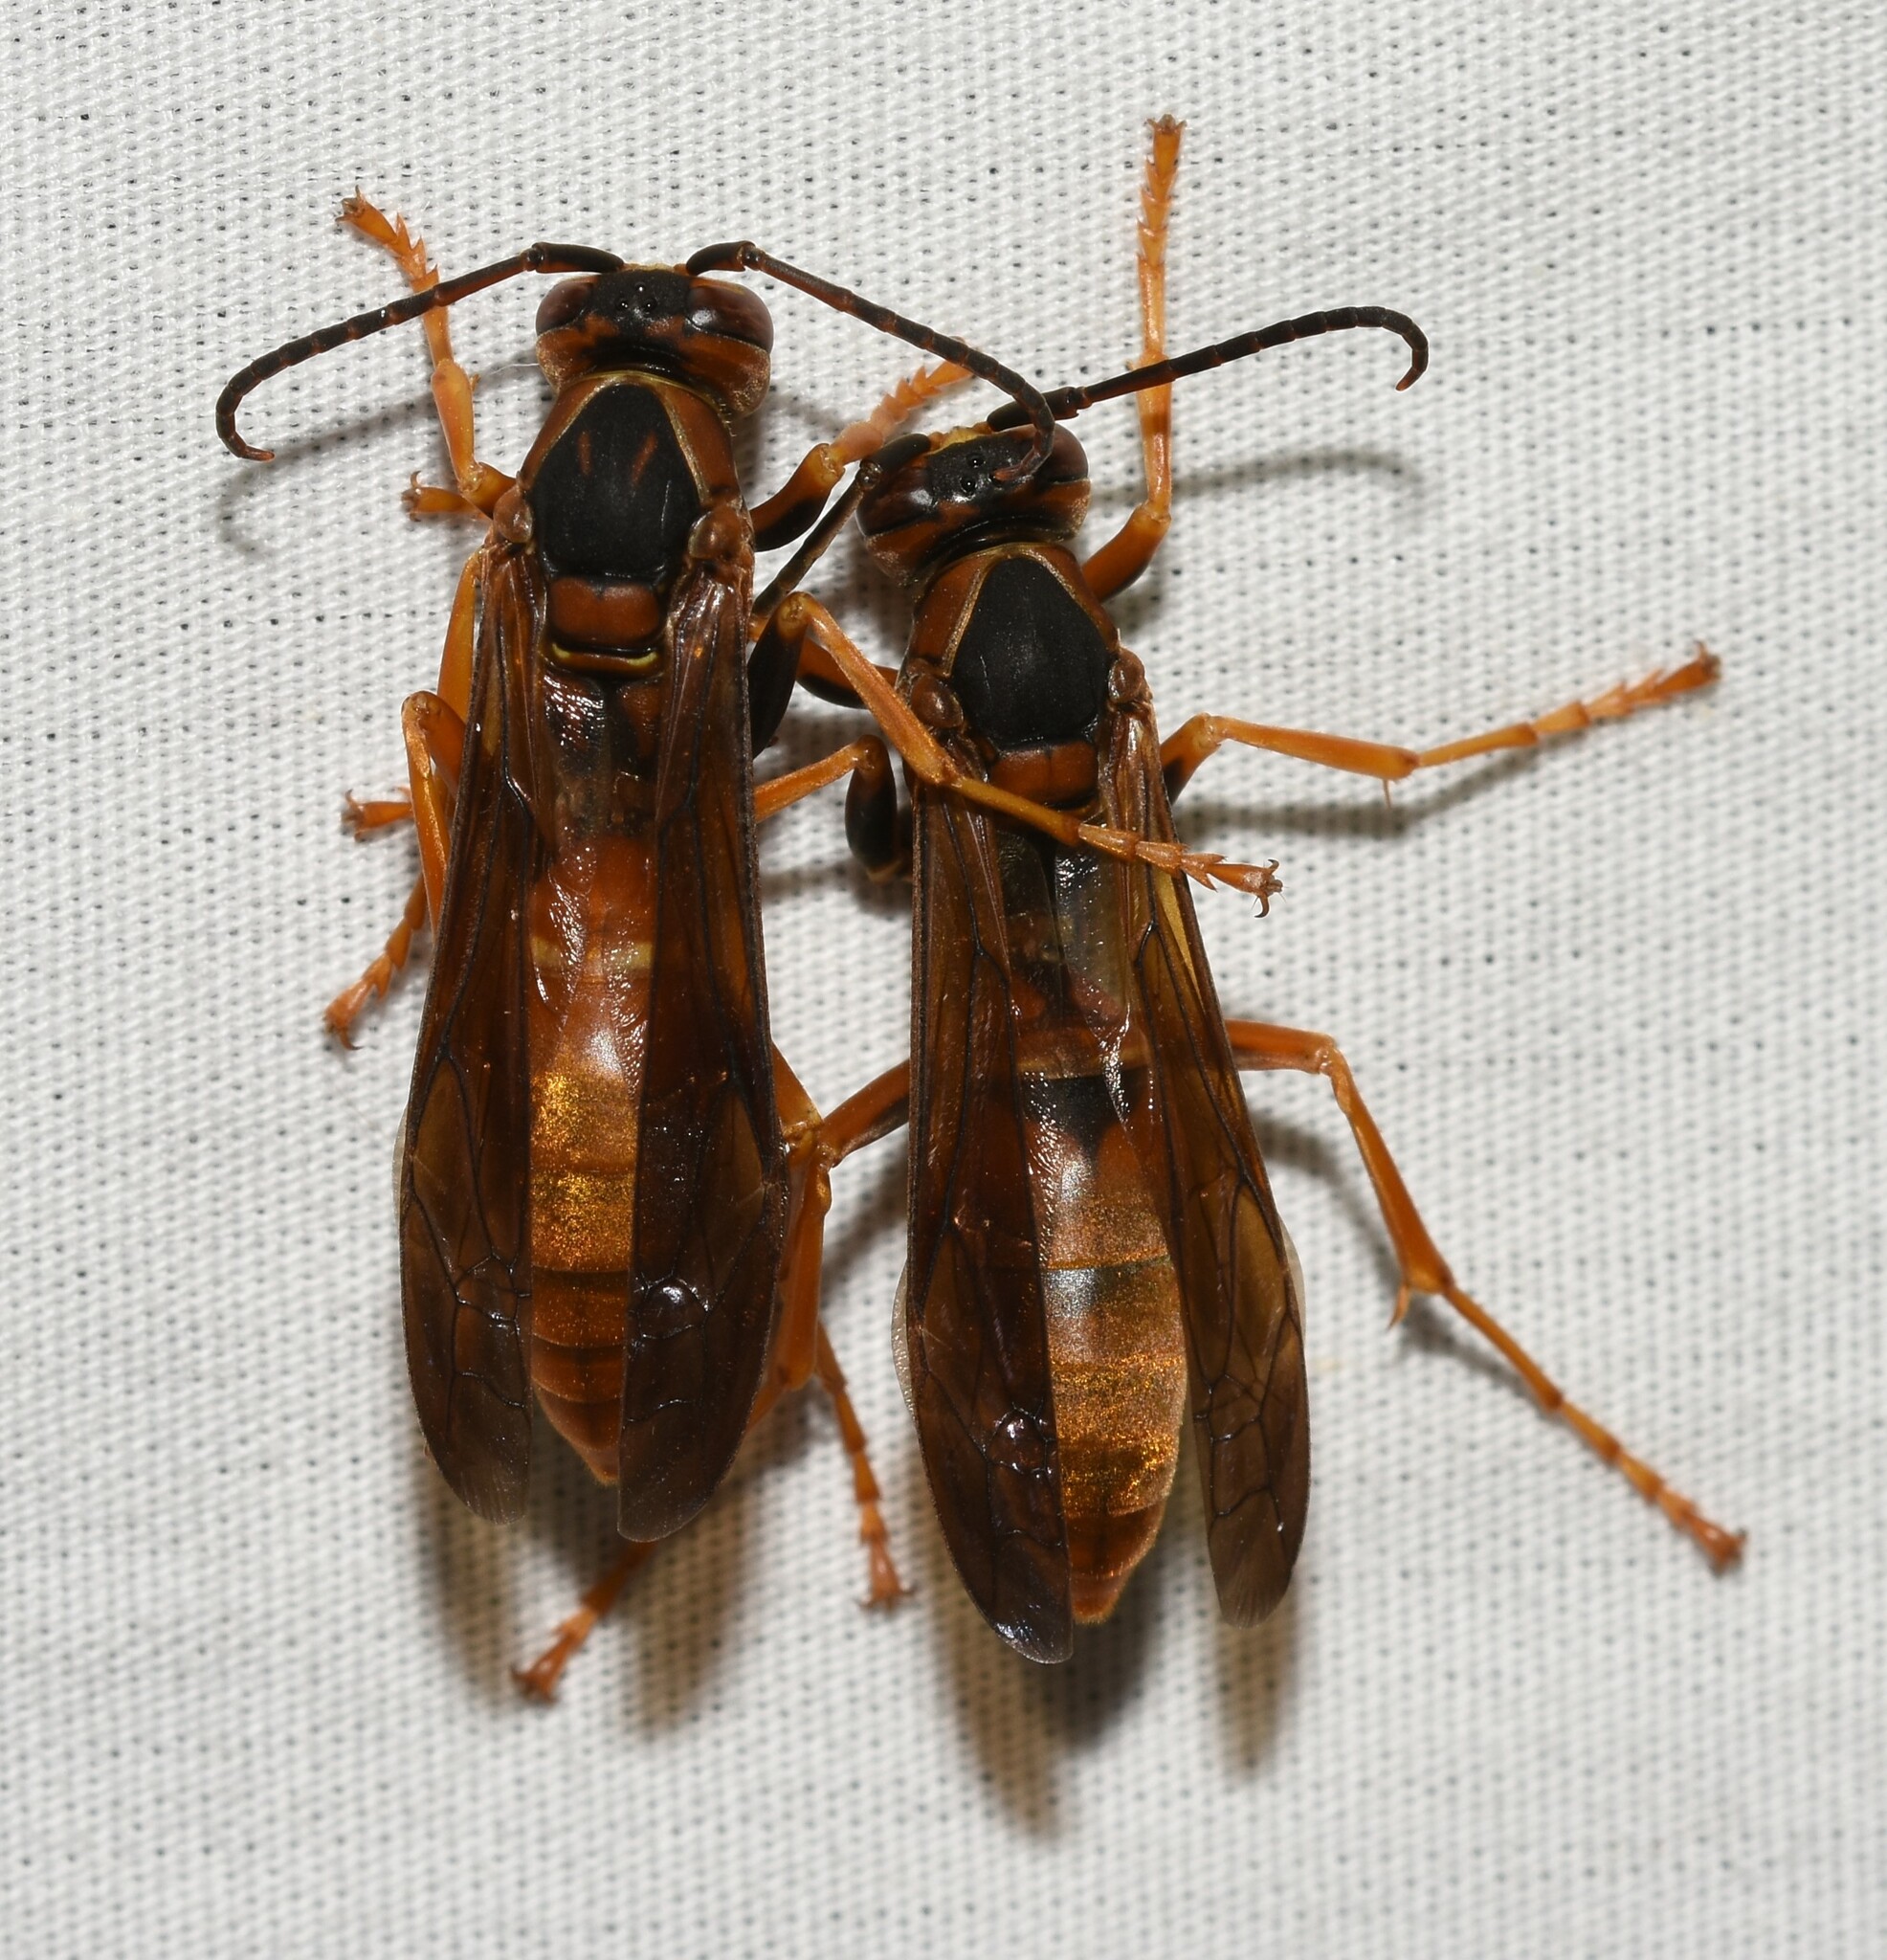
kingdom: Animalia
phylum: Arthropoda
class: Insecta
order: Hymenoptera
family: Eumenidae
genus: Polistes
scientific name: Polistes carolina
